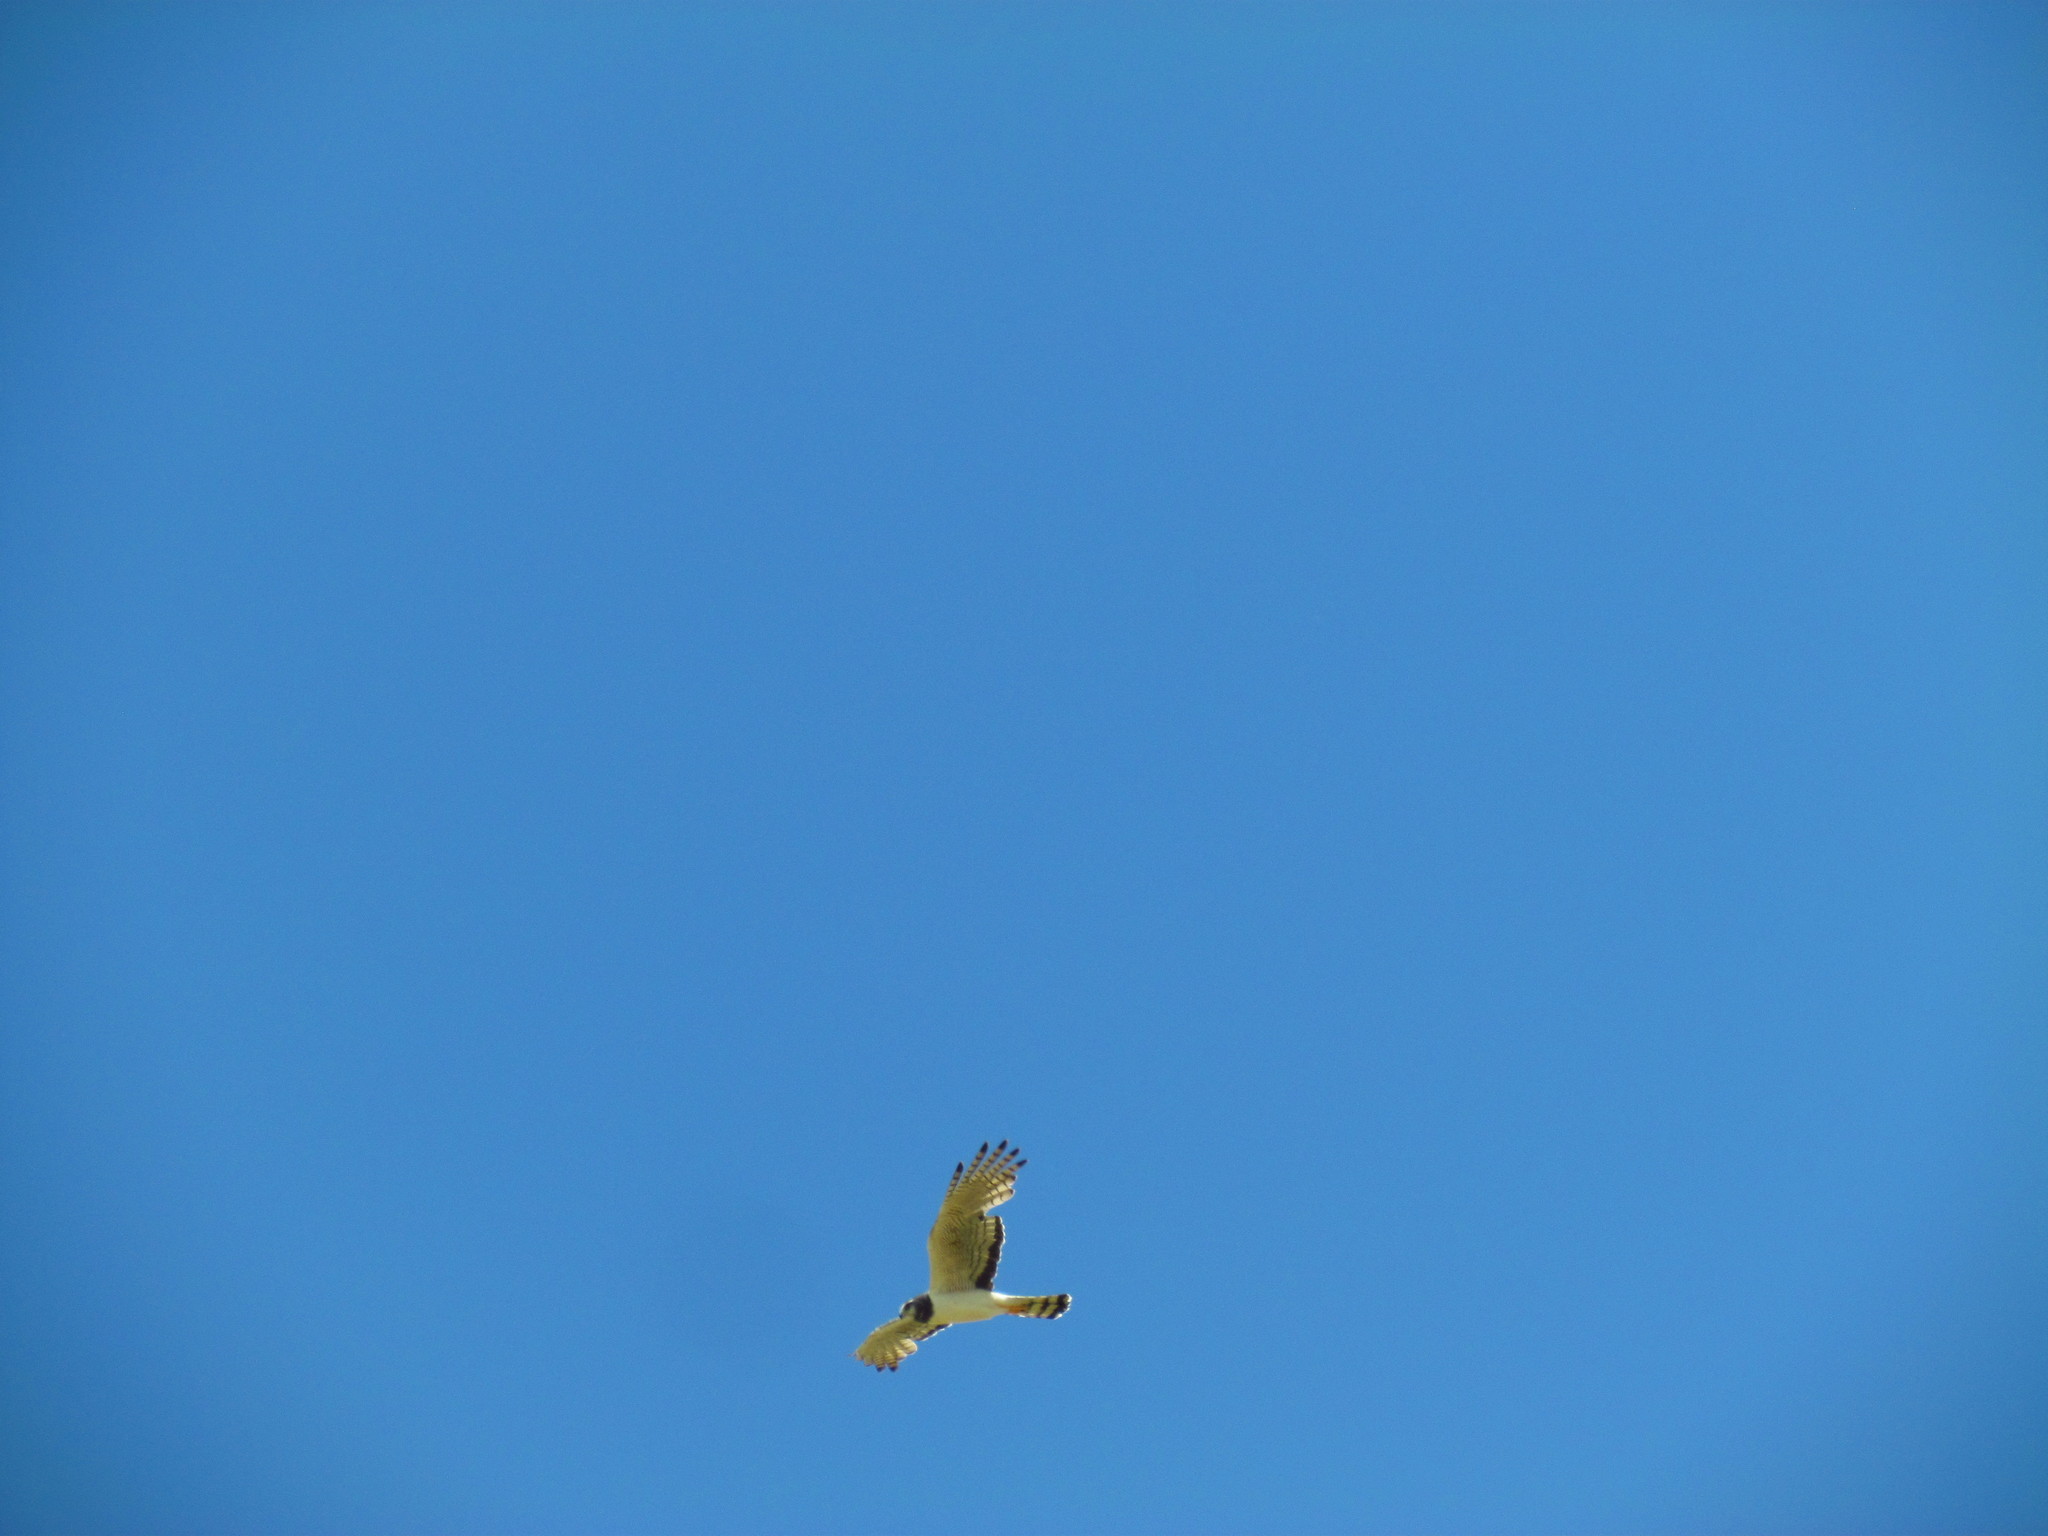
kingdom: Animalia
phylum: Chordata
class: Aves
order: Accipitriformes
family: Accipitridae
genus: Circus
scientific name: Circus buffoni
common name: Long-winged harrier
